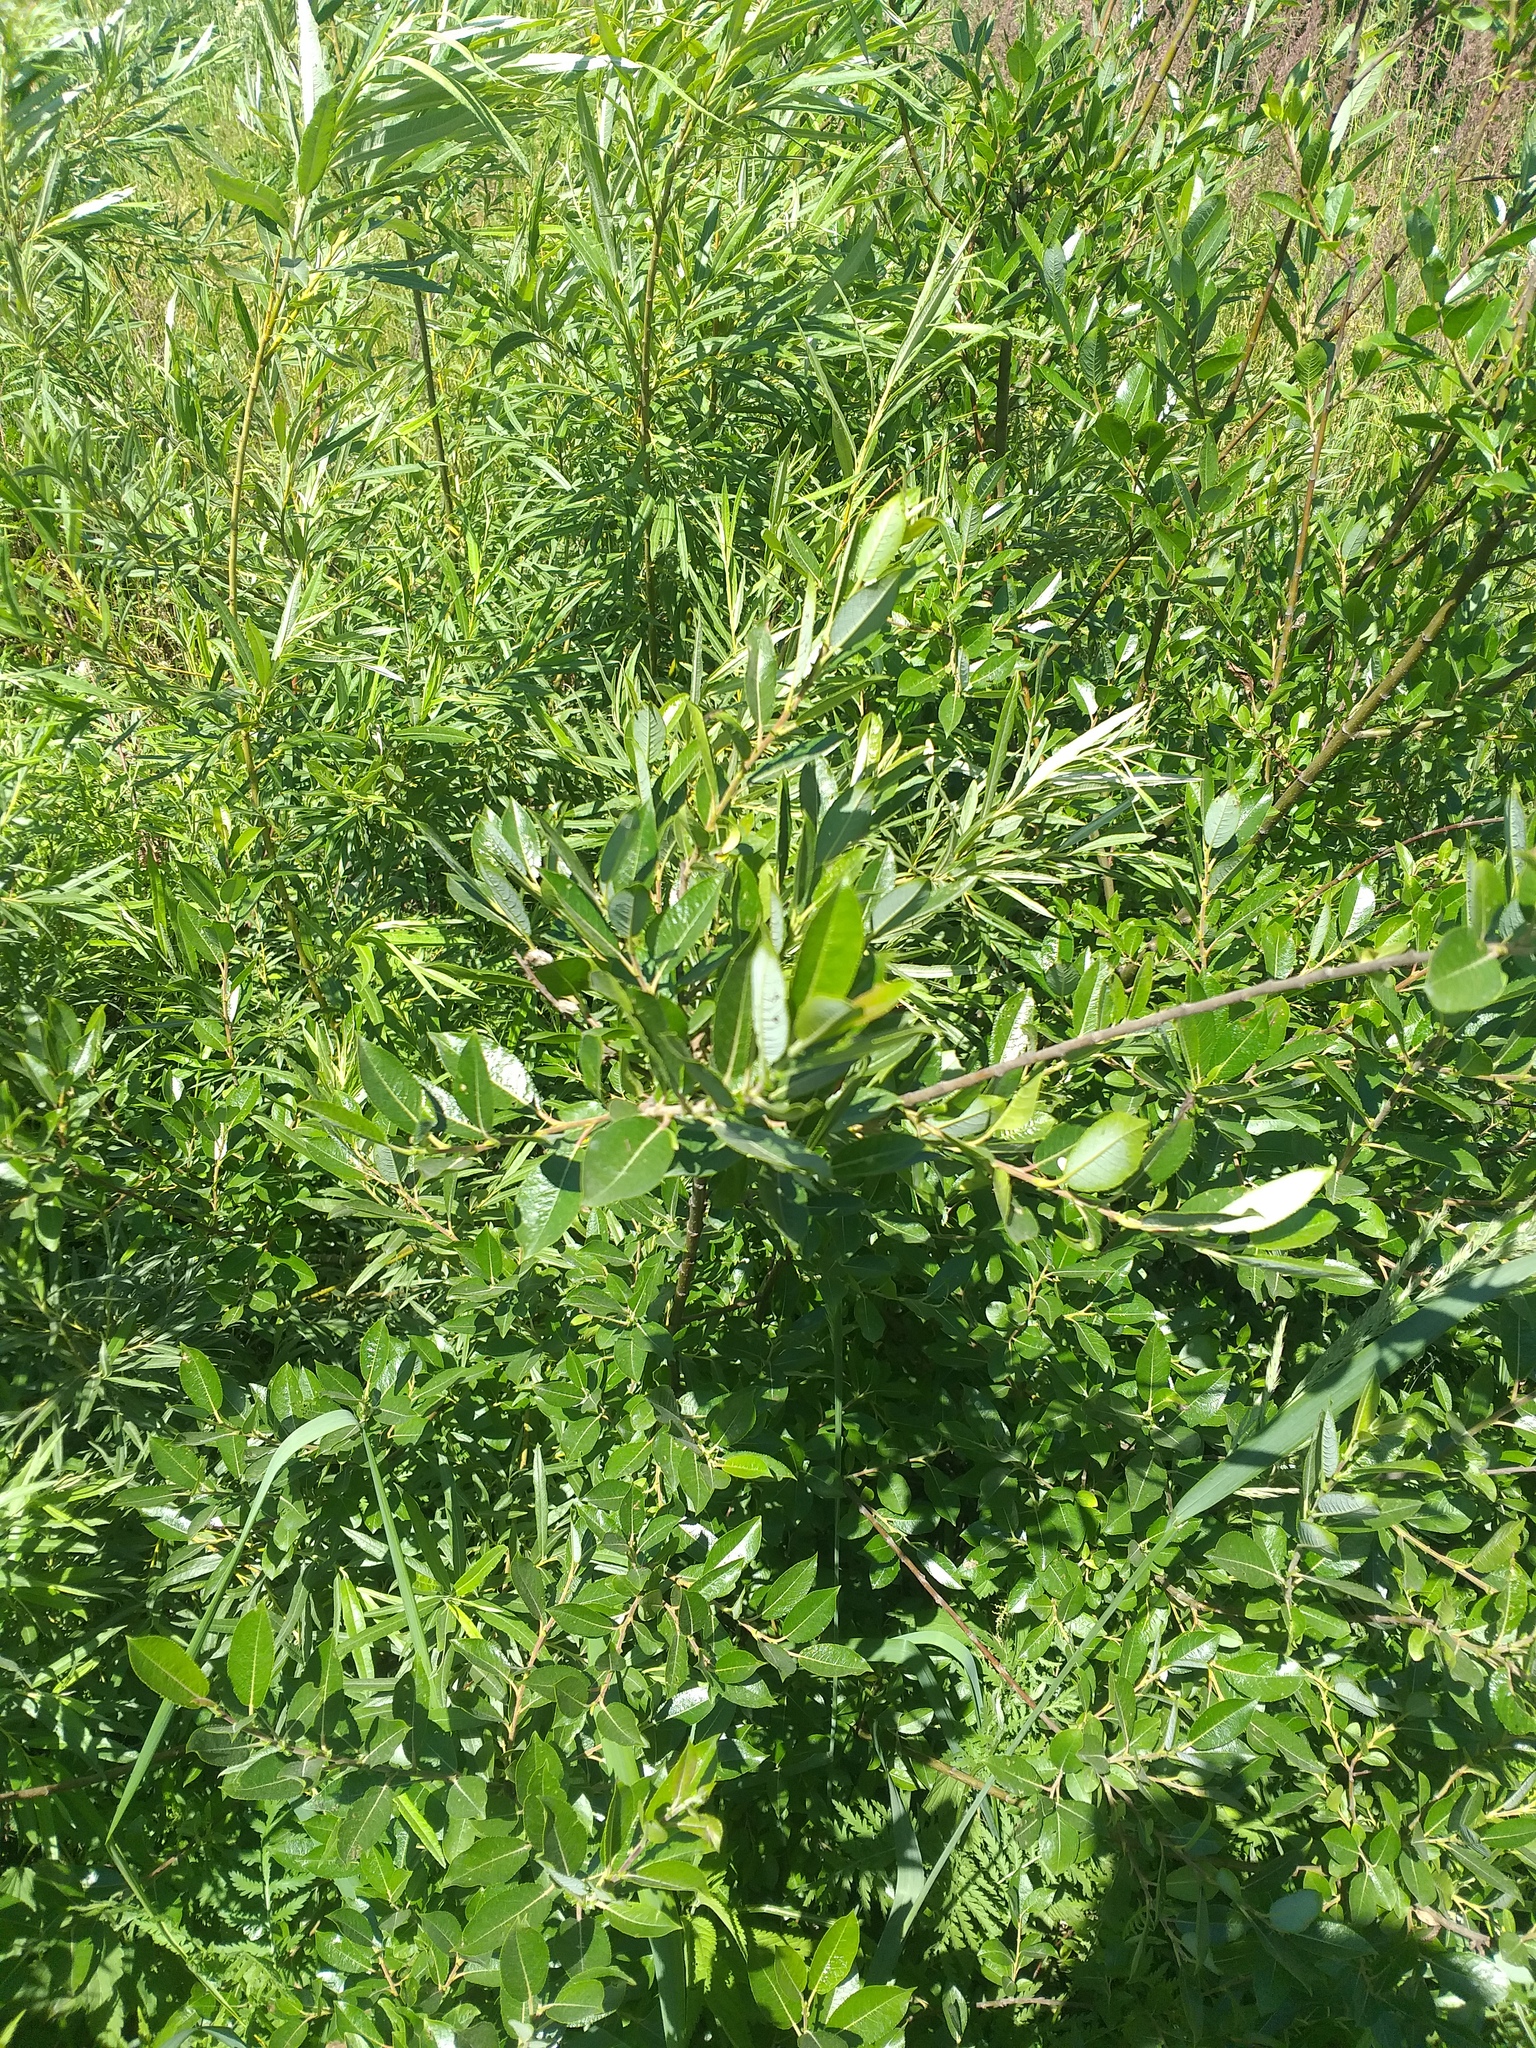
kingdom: Plantae
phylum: Tracheophyta
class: Magnoliopsida
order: Malpighiales
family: Salicaceae
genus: Salix
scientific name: Salix myrsinifolia
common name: Dark-leaved willow
